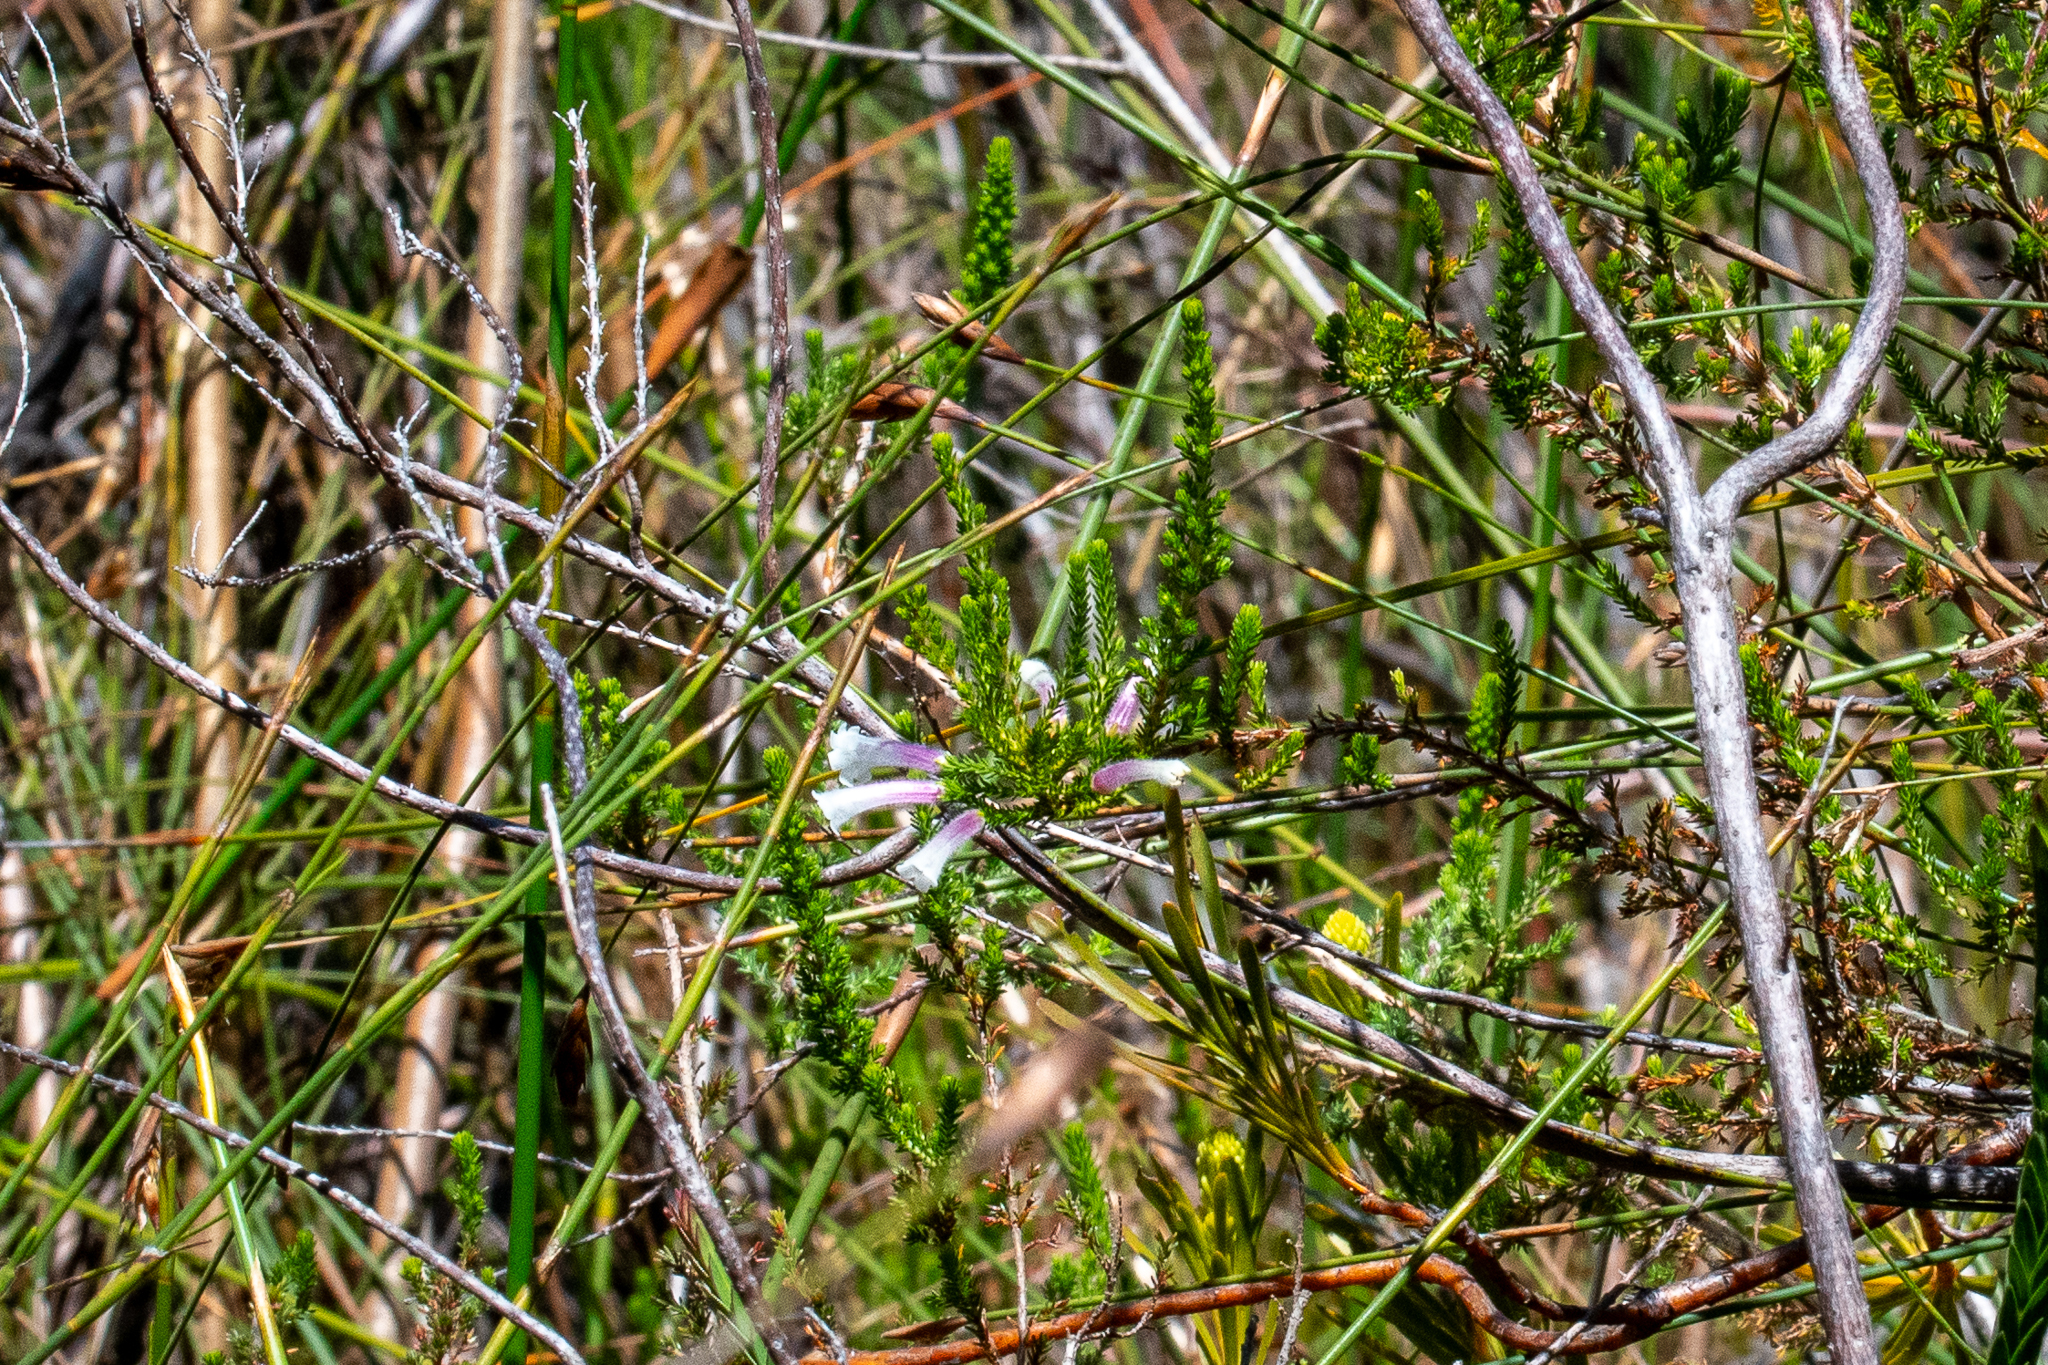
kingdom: Plantae
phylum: Tracheophyta
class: Magnoliopsida
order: Ericales
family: Ericaceae
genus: Erica
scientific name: Erica perspicua
